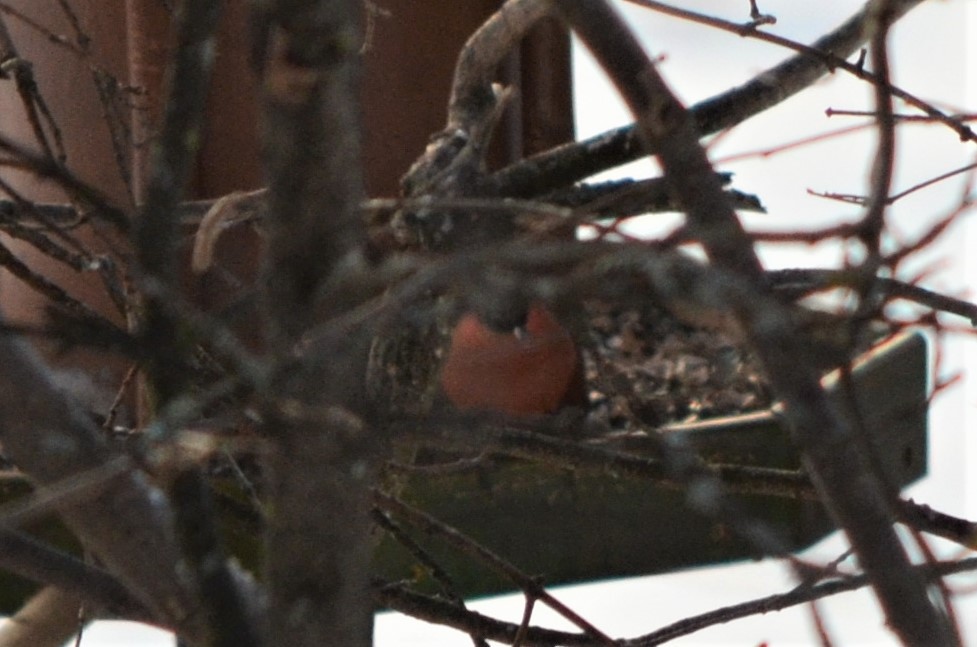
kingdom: Animalia
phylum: Chordata
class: Aves
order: Passeriformes
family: Fringillidae
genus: Pyrrhula
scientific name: Pyrrhula pyrrhula
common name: Eurasian bullfinch
